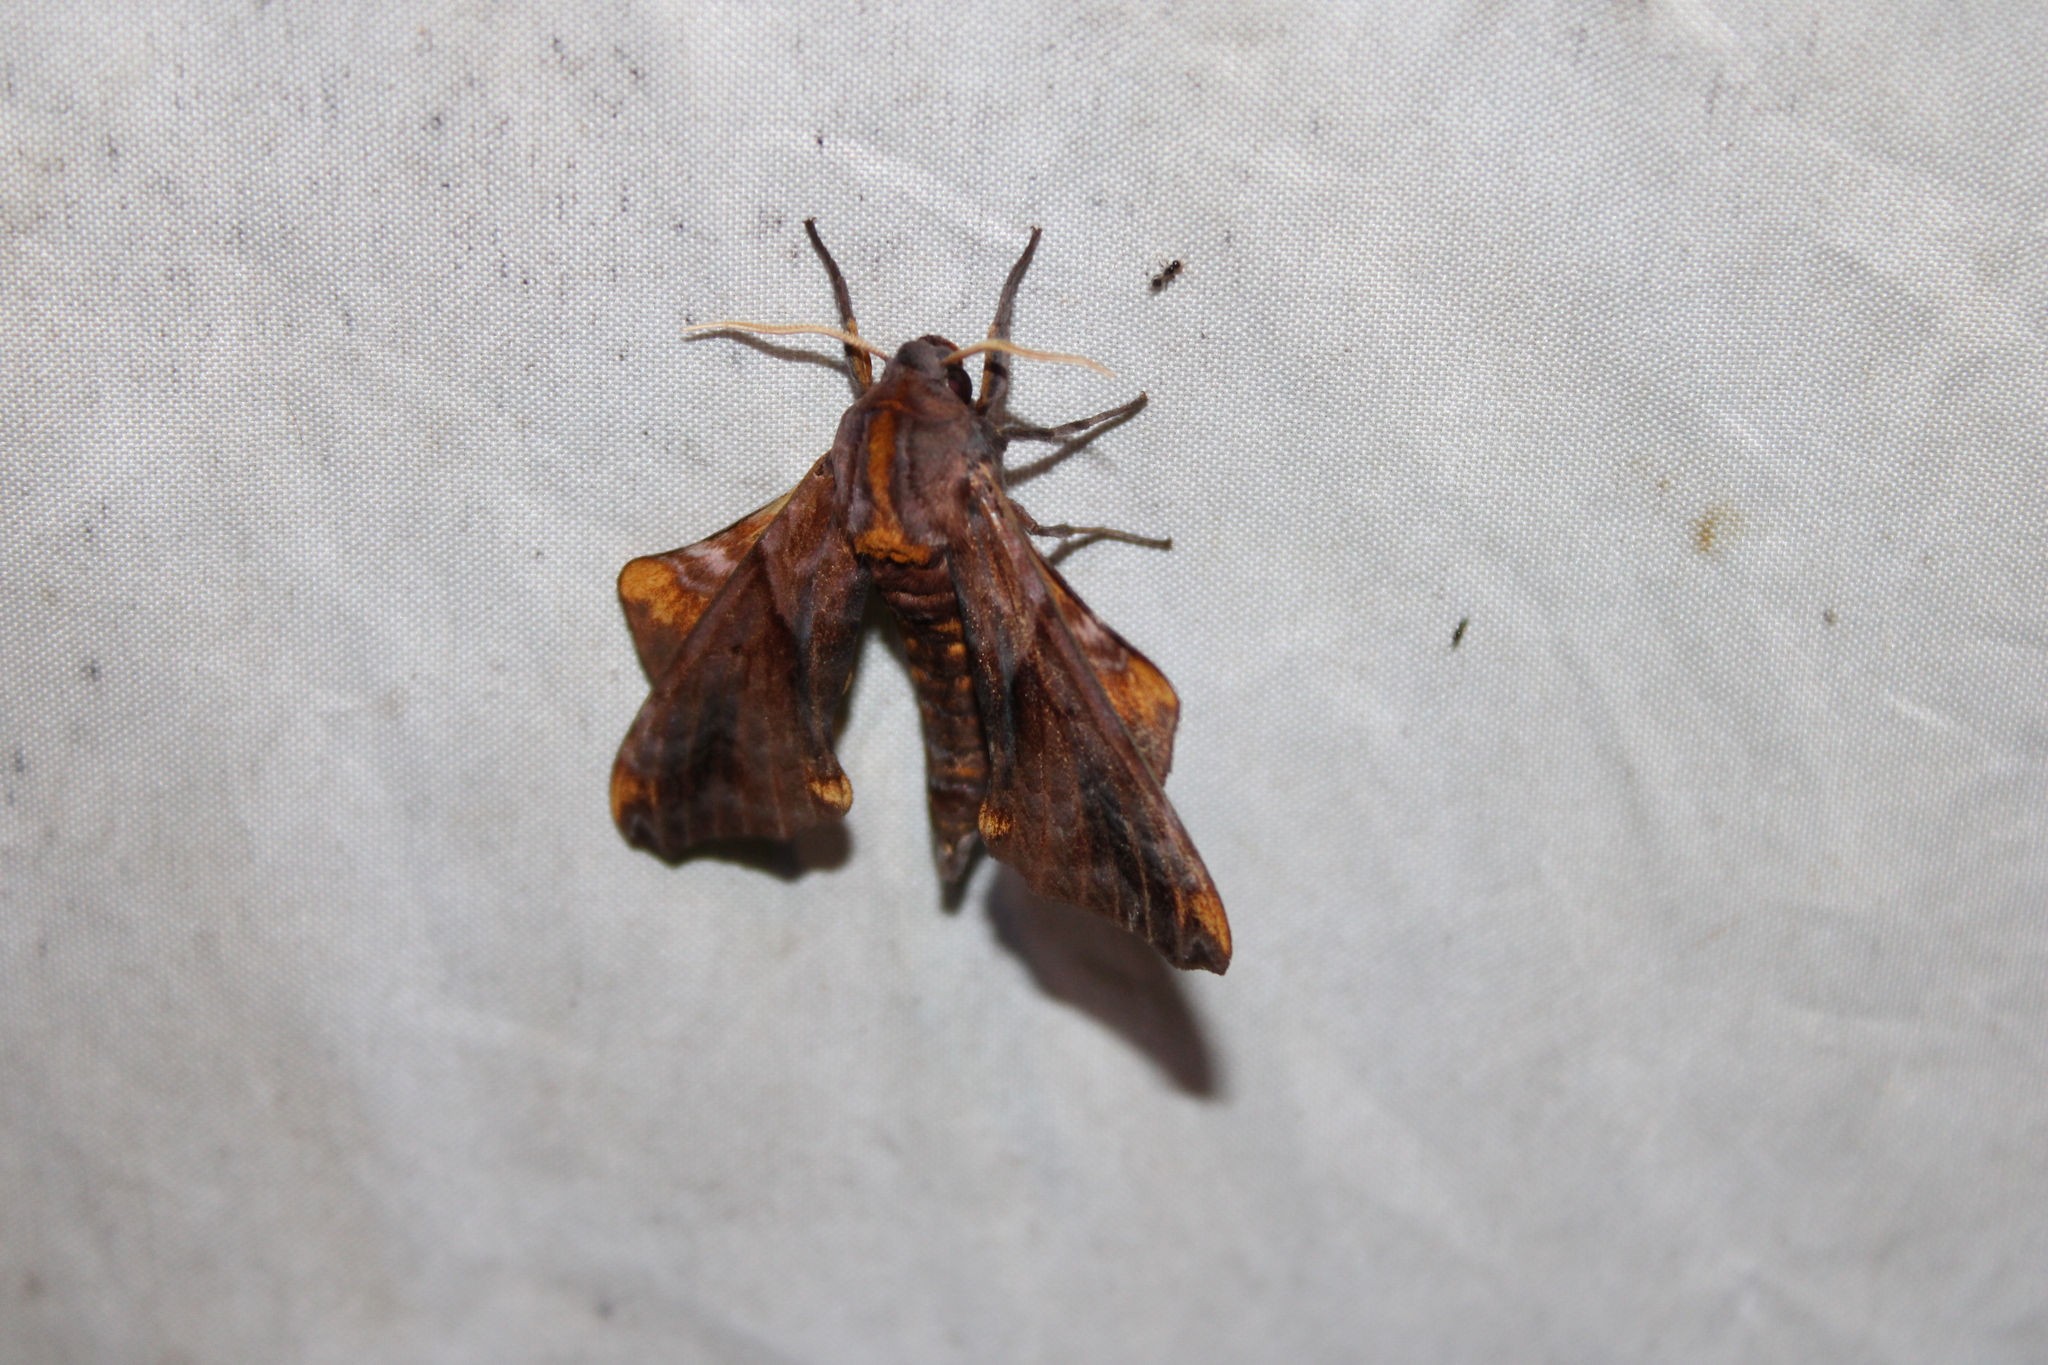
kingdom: Animalia
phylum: Arthropoda
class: Insecta
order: Lepidoptera
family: Sphingidae
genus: Paonias
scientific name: Paonias myops
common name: Small-eyed sphinx
